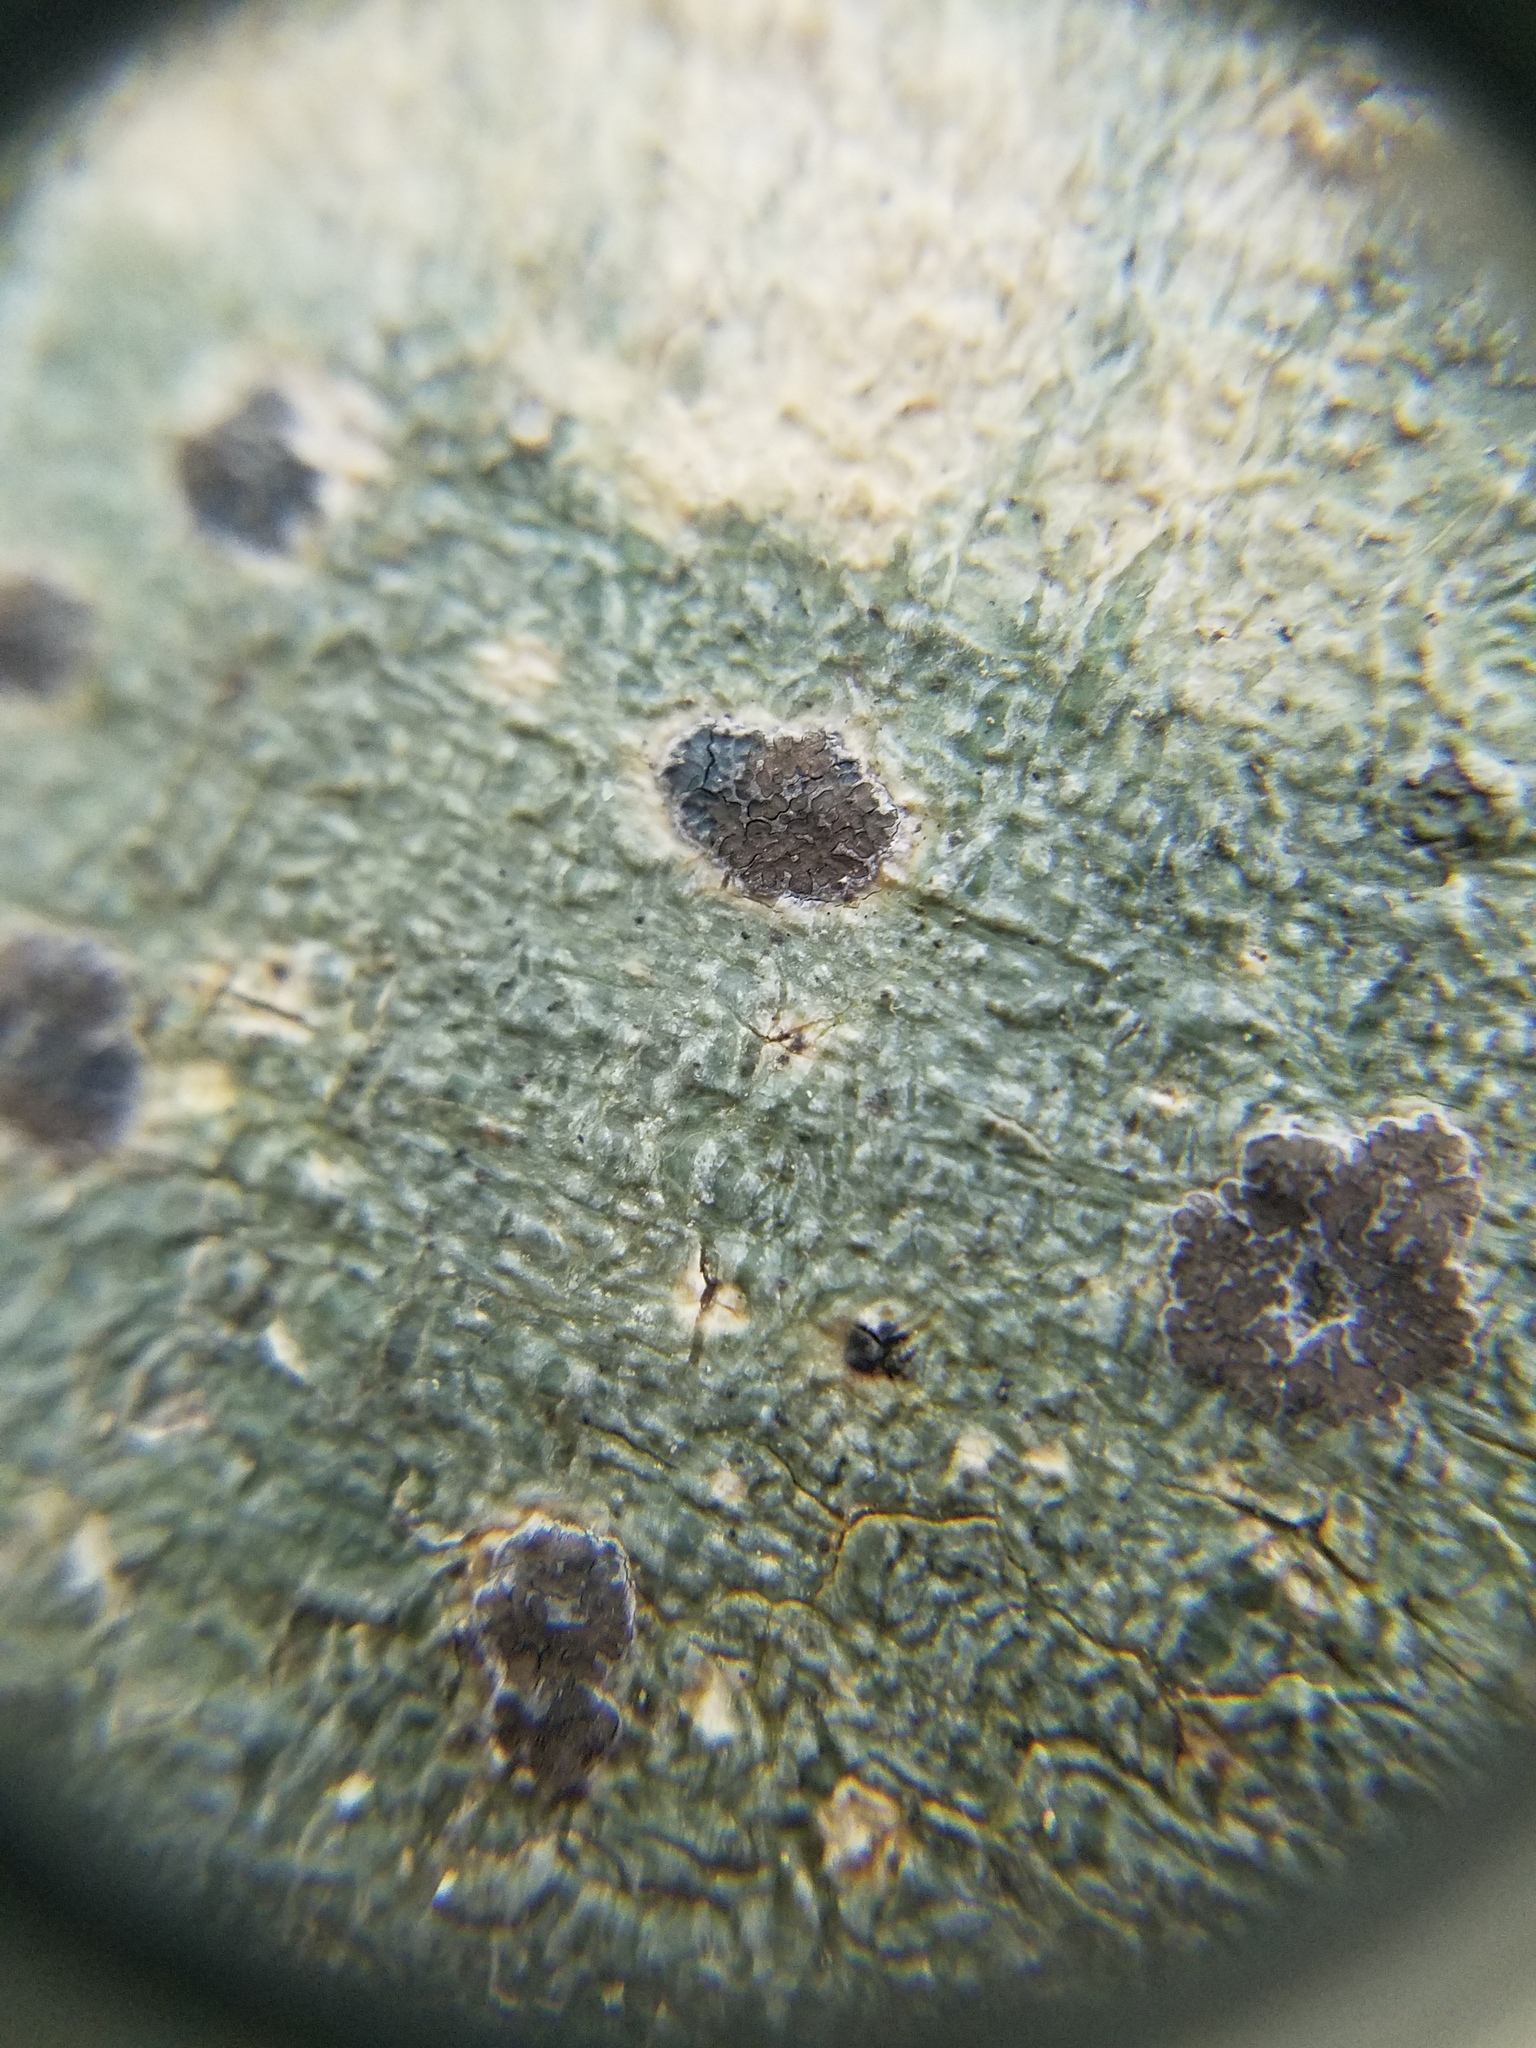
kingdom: Fungi
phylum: Ascomycota
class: Lecanoromycetes
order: Ostropales
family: Graphidaceae
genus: Glyphis
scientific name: Glyphis cicatricosa
